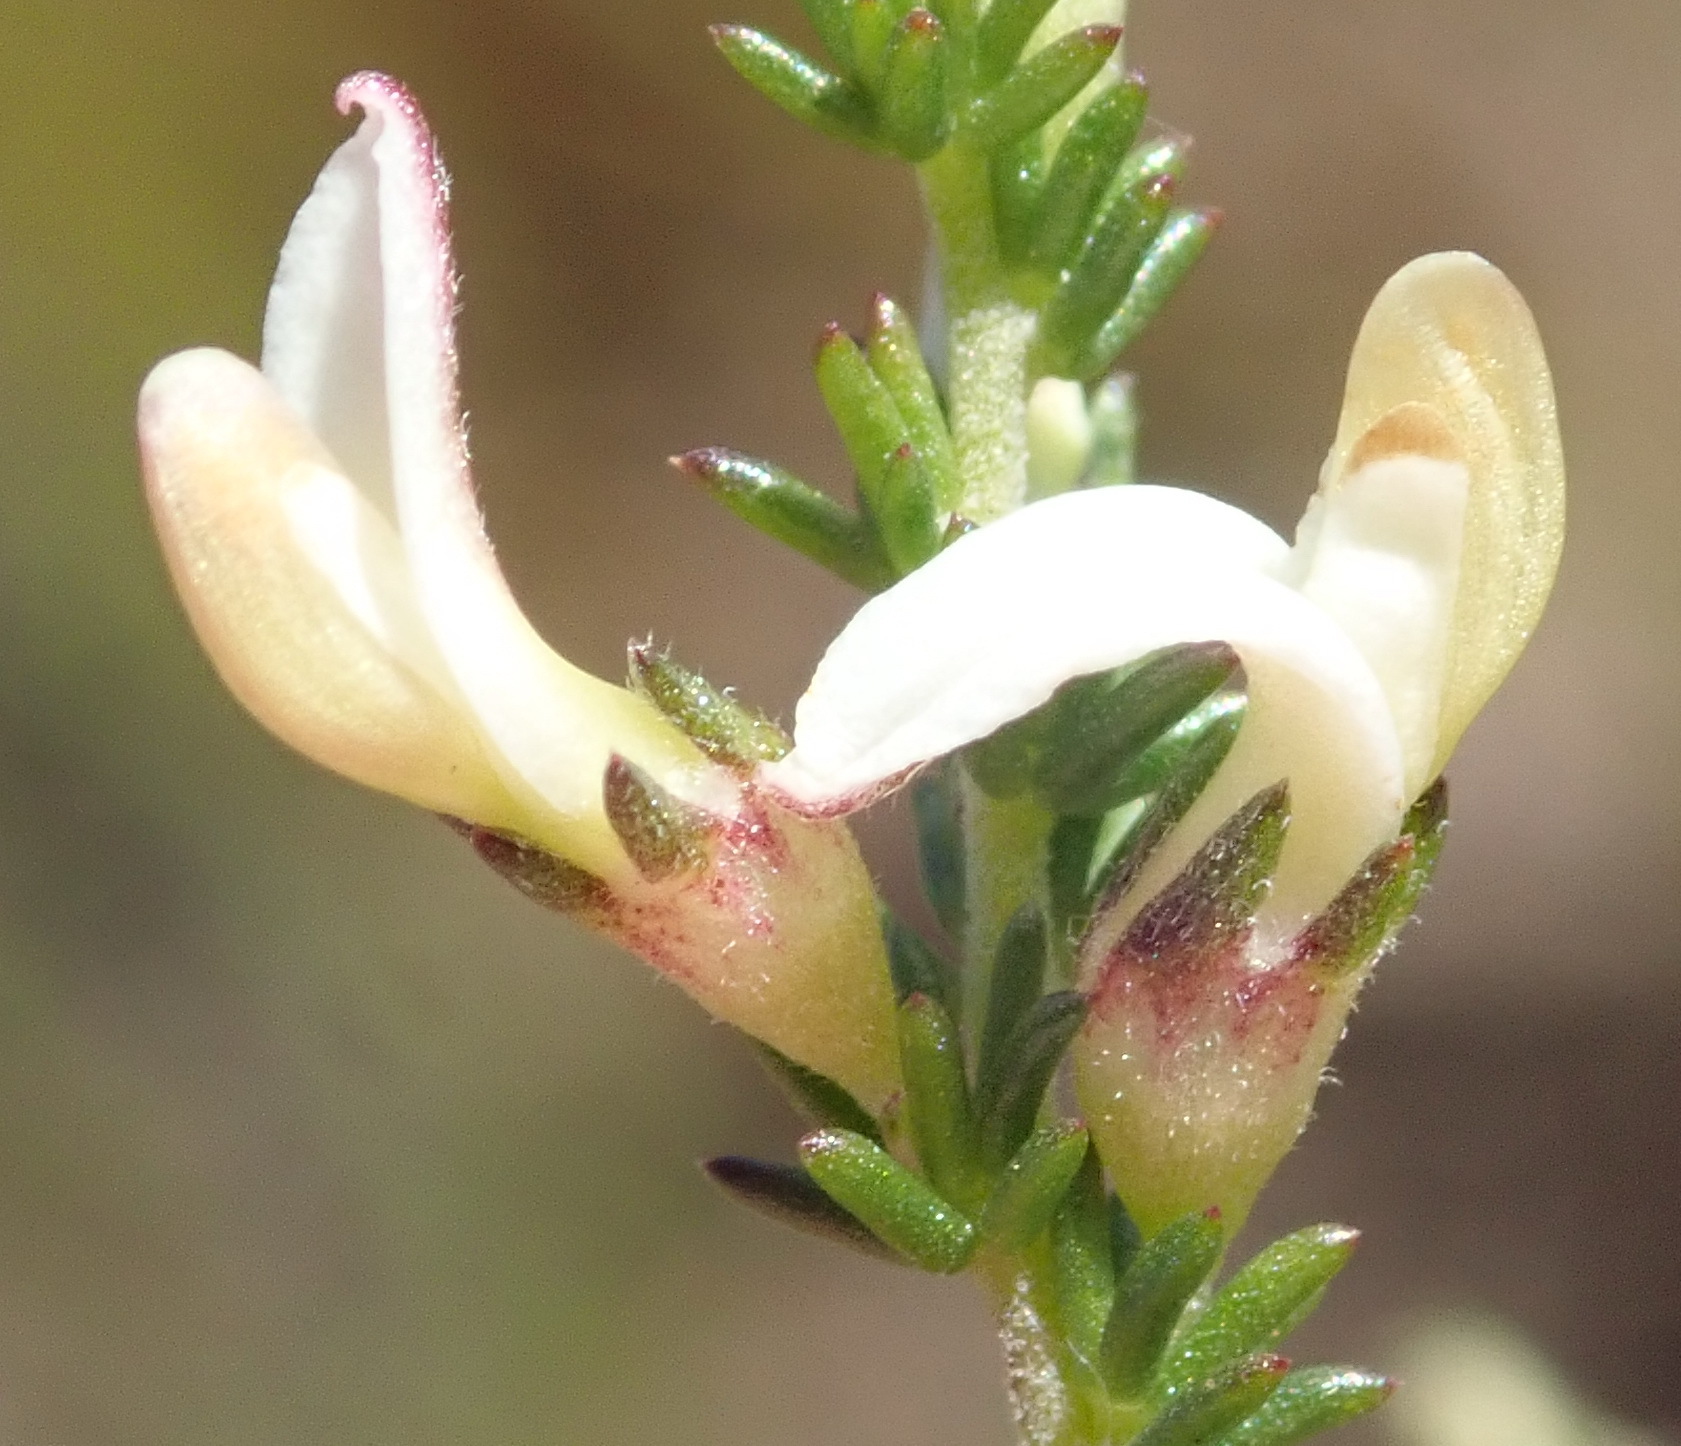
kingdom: Plantae
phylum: Tracheophyta
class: Magnoliopsida
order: Fabales
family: Fabaceae
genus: Aspalathus
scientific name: Aspalathus hispida
